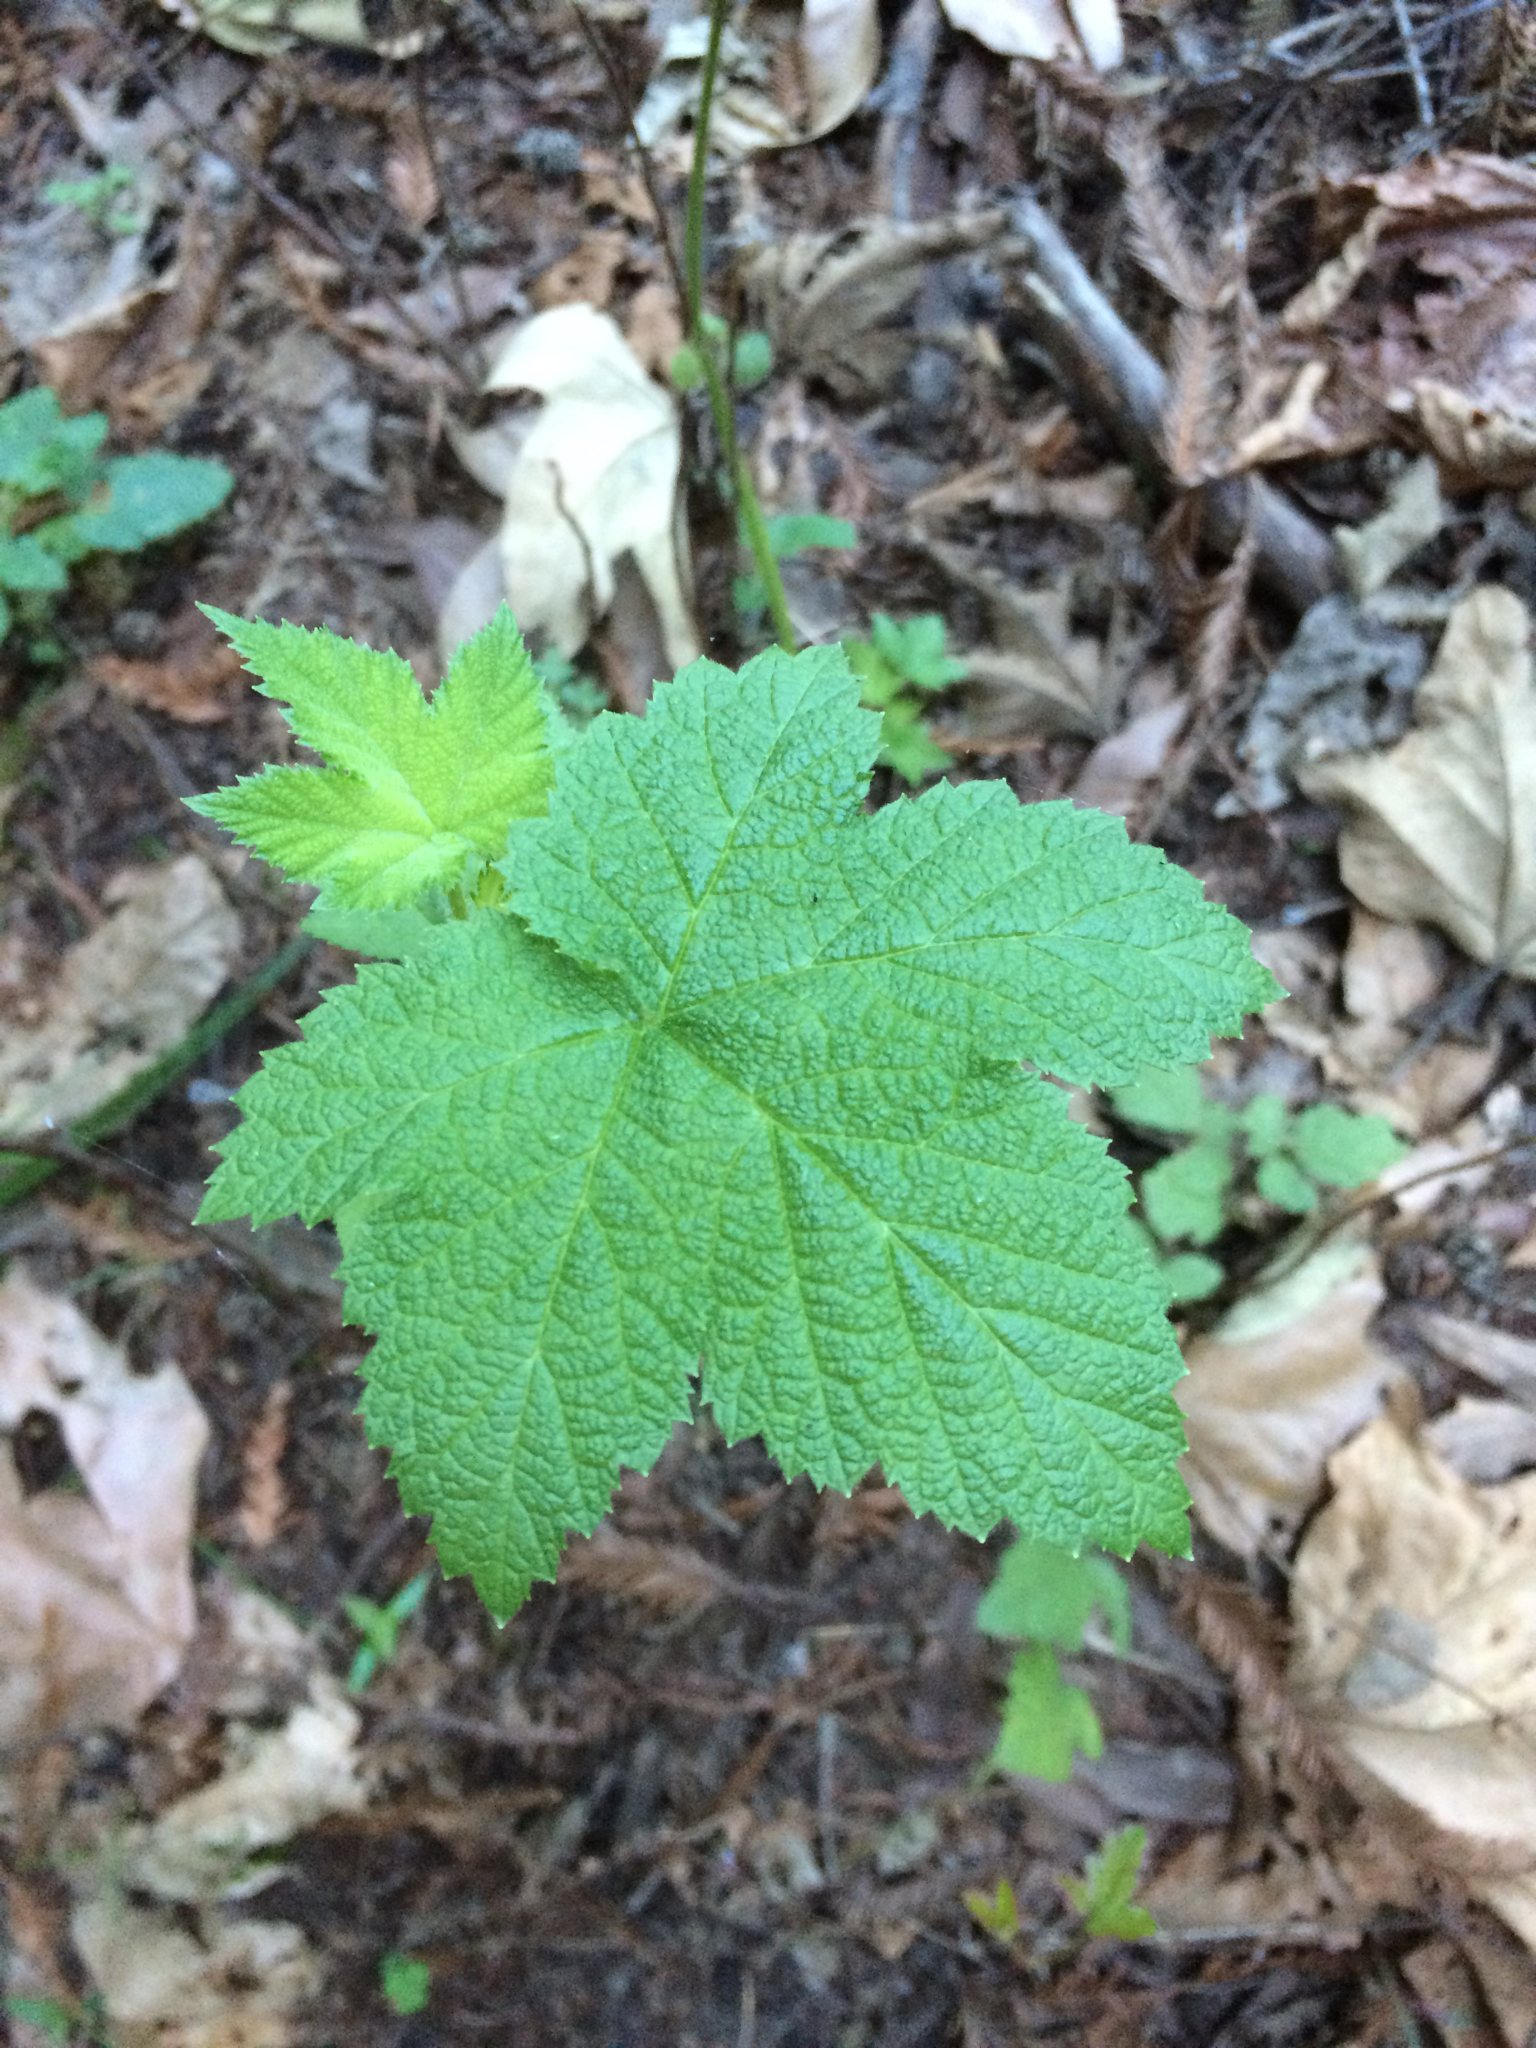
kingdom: Plantae
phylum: Tracheophyta
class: Magnoliopsida
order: Rosales
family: Rosaceae
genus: Rubus
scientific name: Rubus parviflorus
